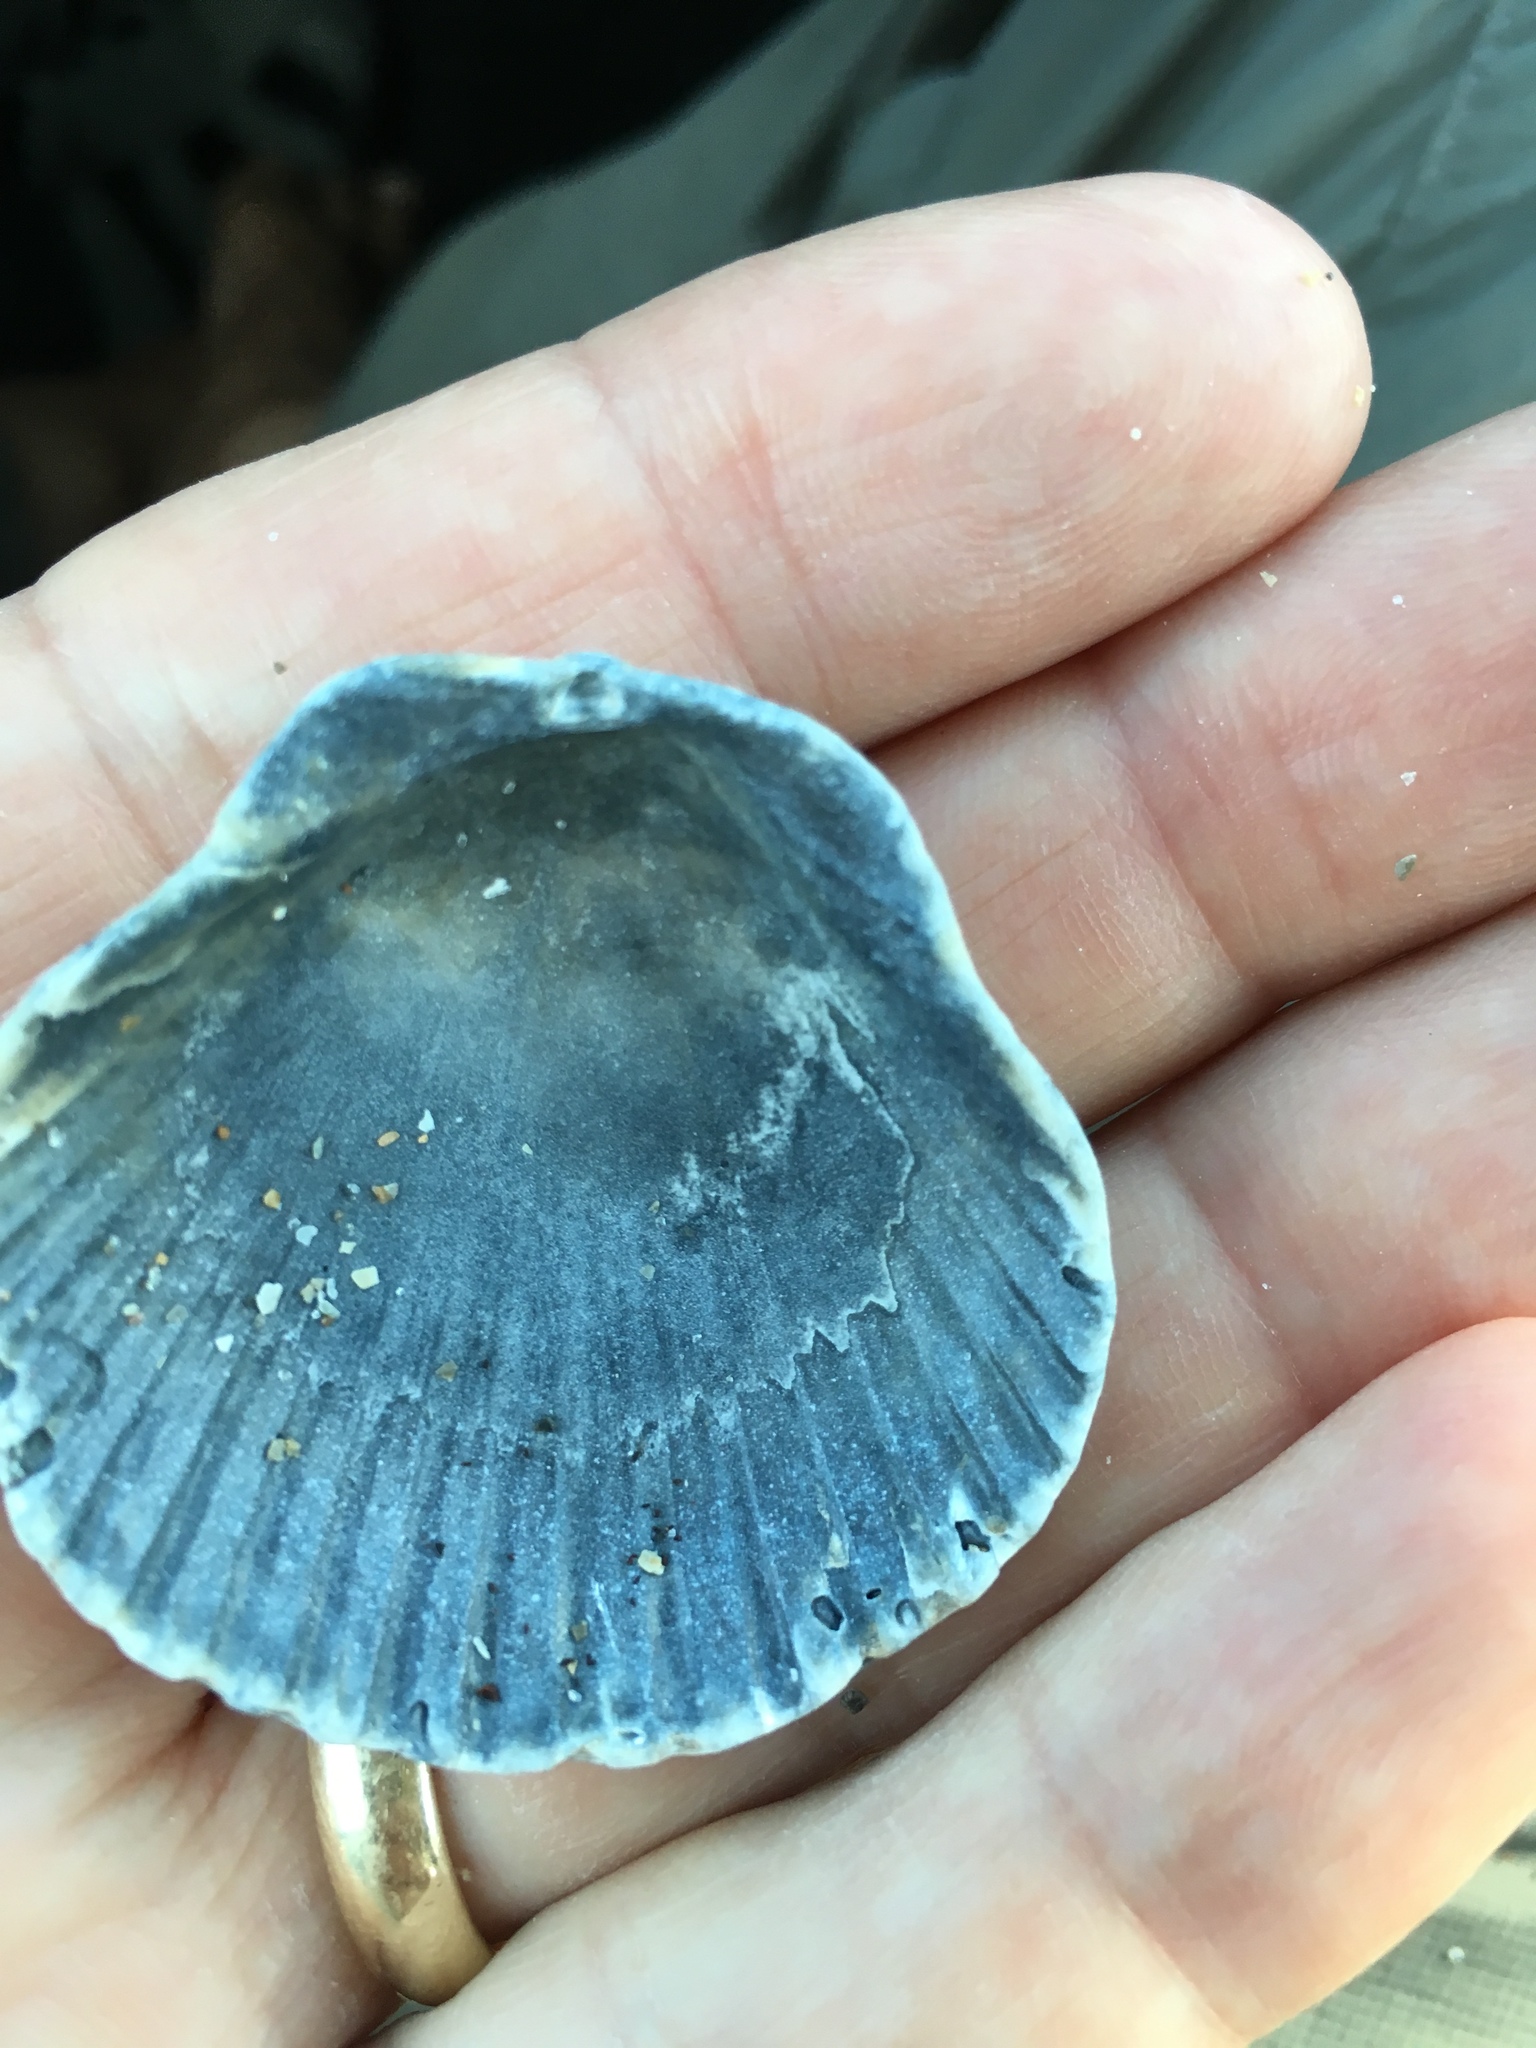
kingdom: Animalia
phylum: Mollusca
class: Bivalvia
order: Pectinida
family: Pectinidae
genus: Argopecten
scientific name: Argopecten gibbus
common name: Atlantic calico scallop
